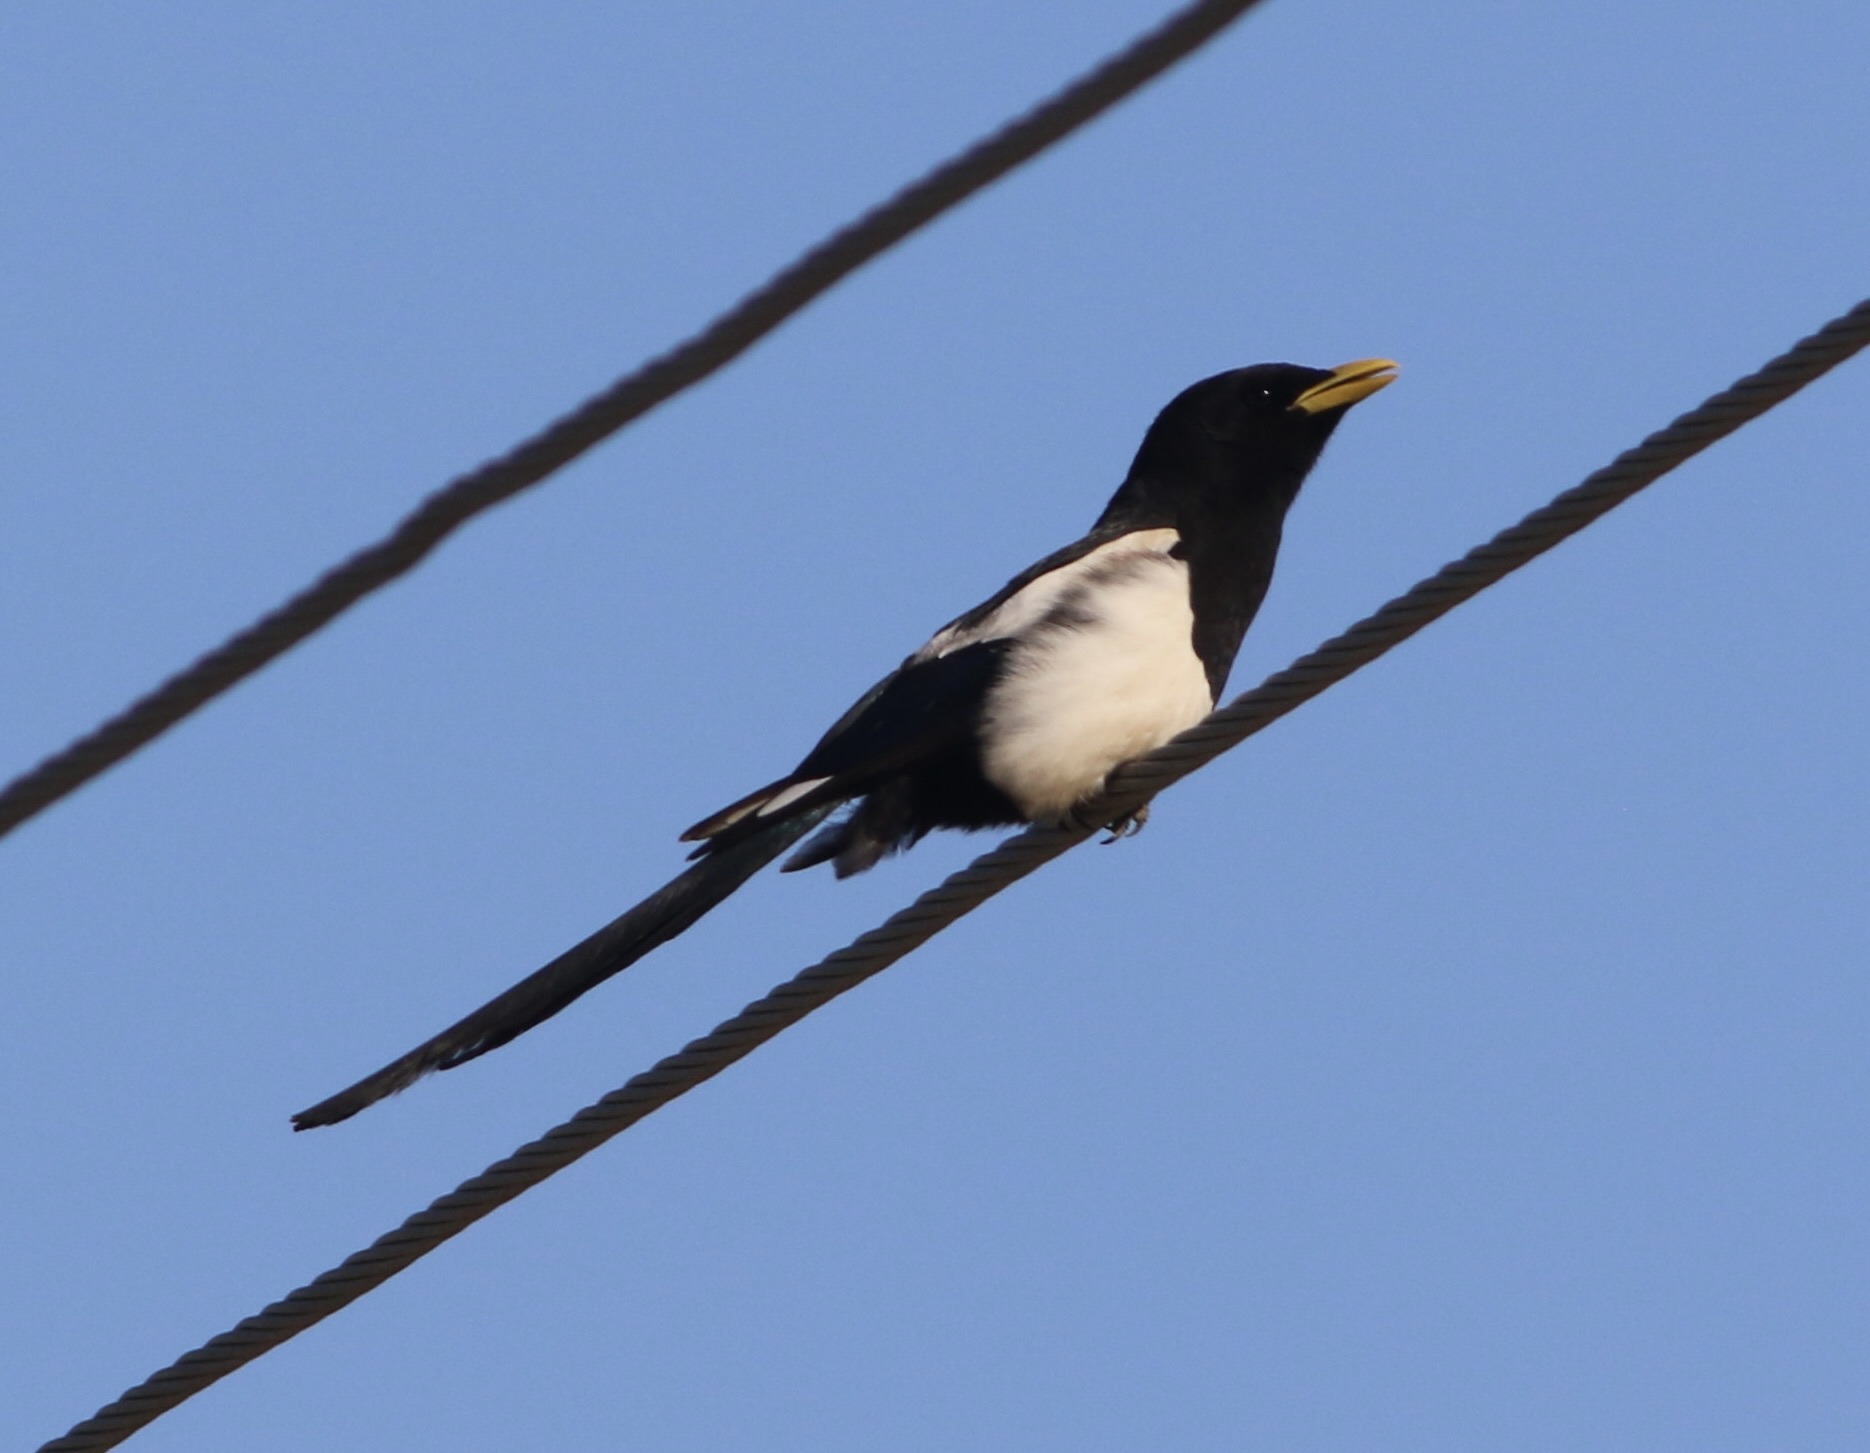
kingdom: Animalia
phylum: Chordata
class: Aves
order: Passeriformes
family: Corvidae
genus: Pica
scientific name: Pica nuttalli
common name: Yellow-billed magpie
